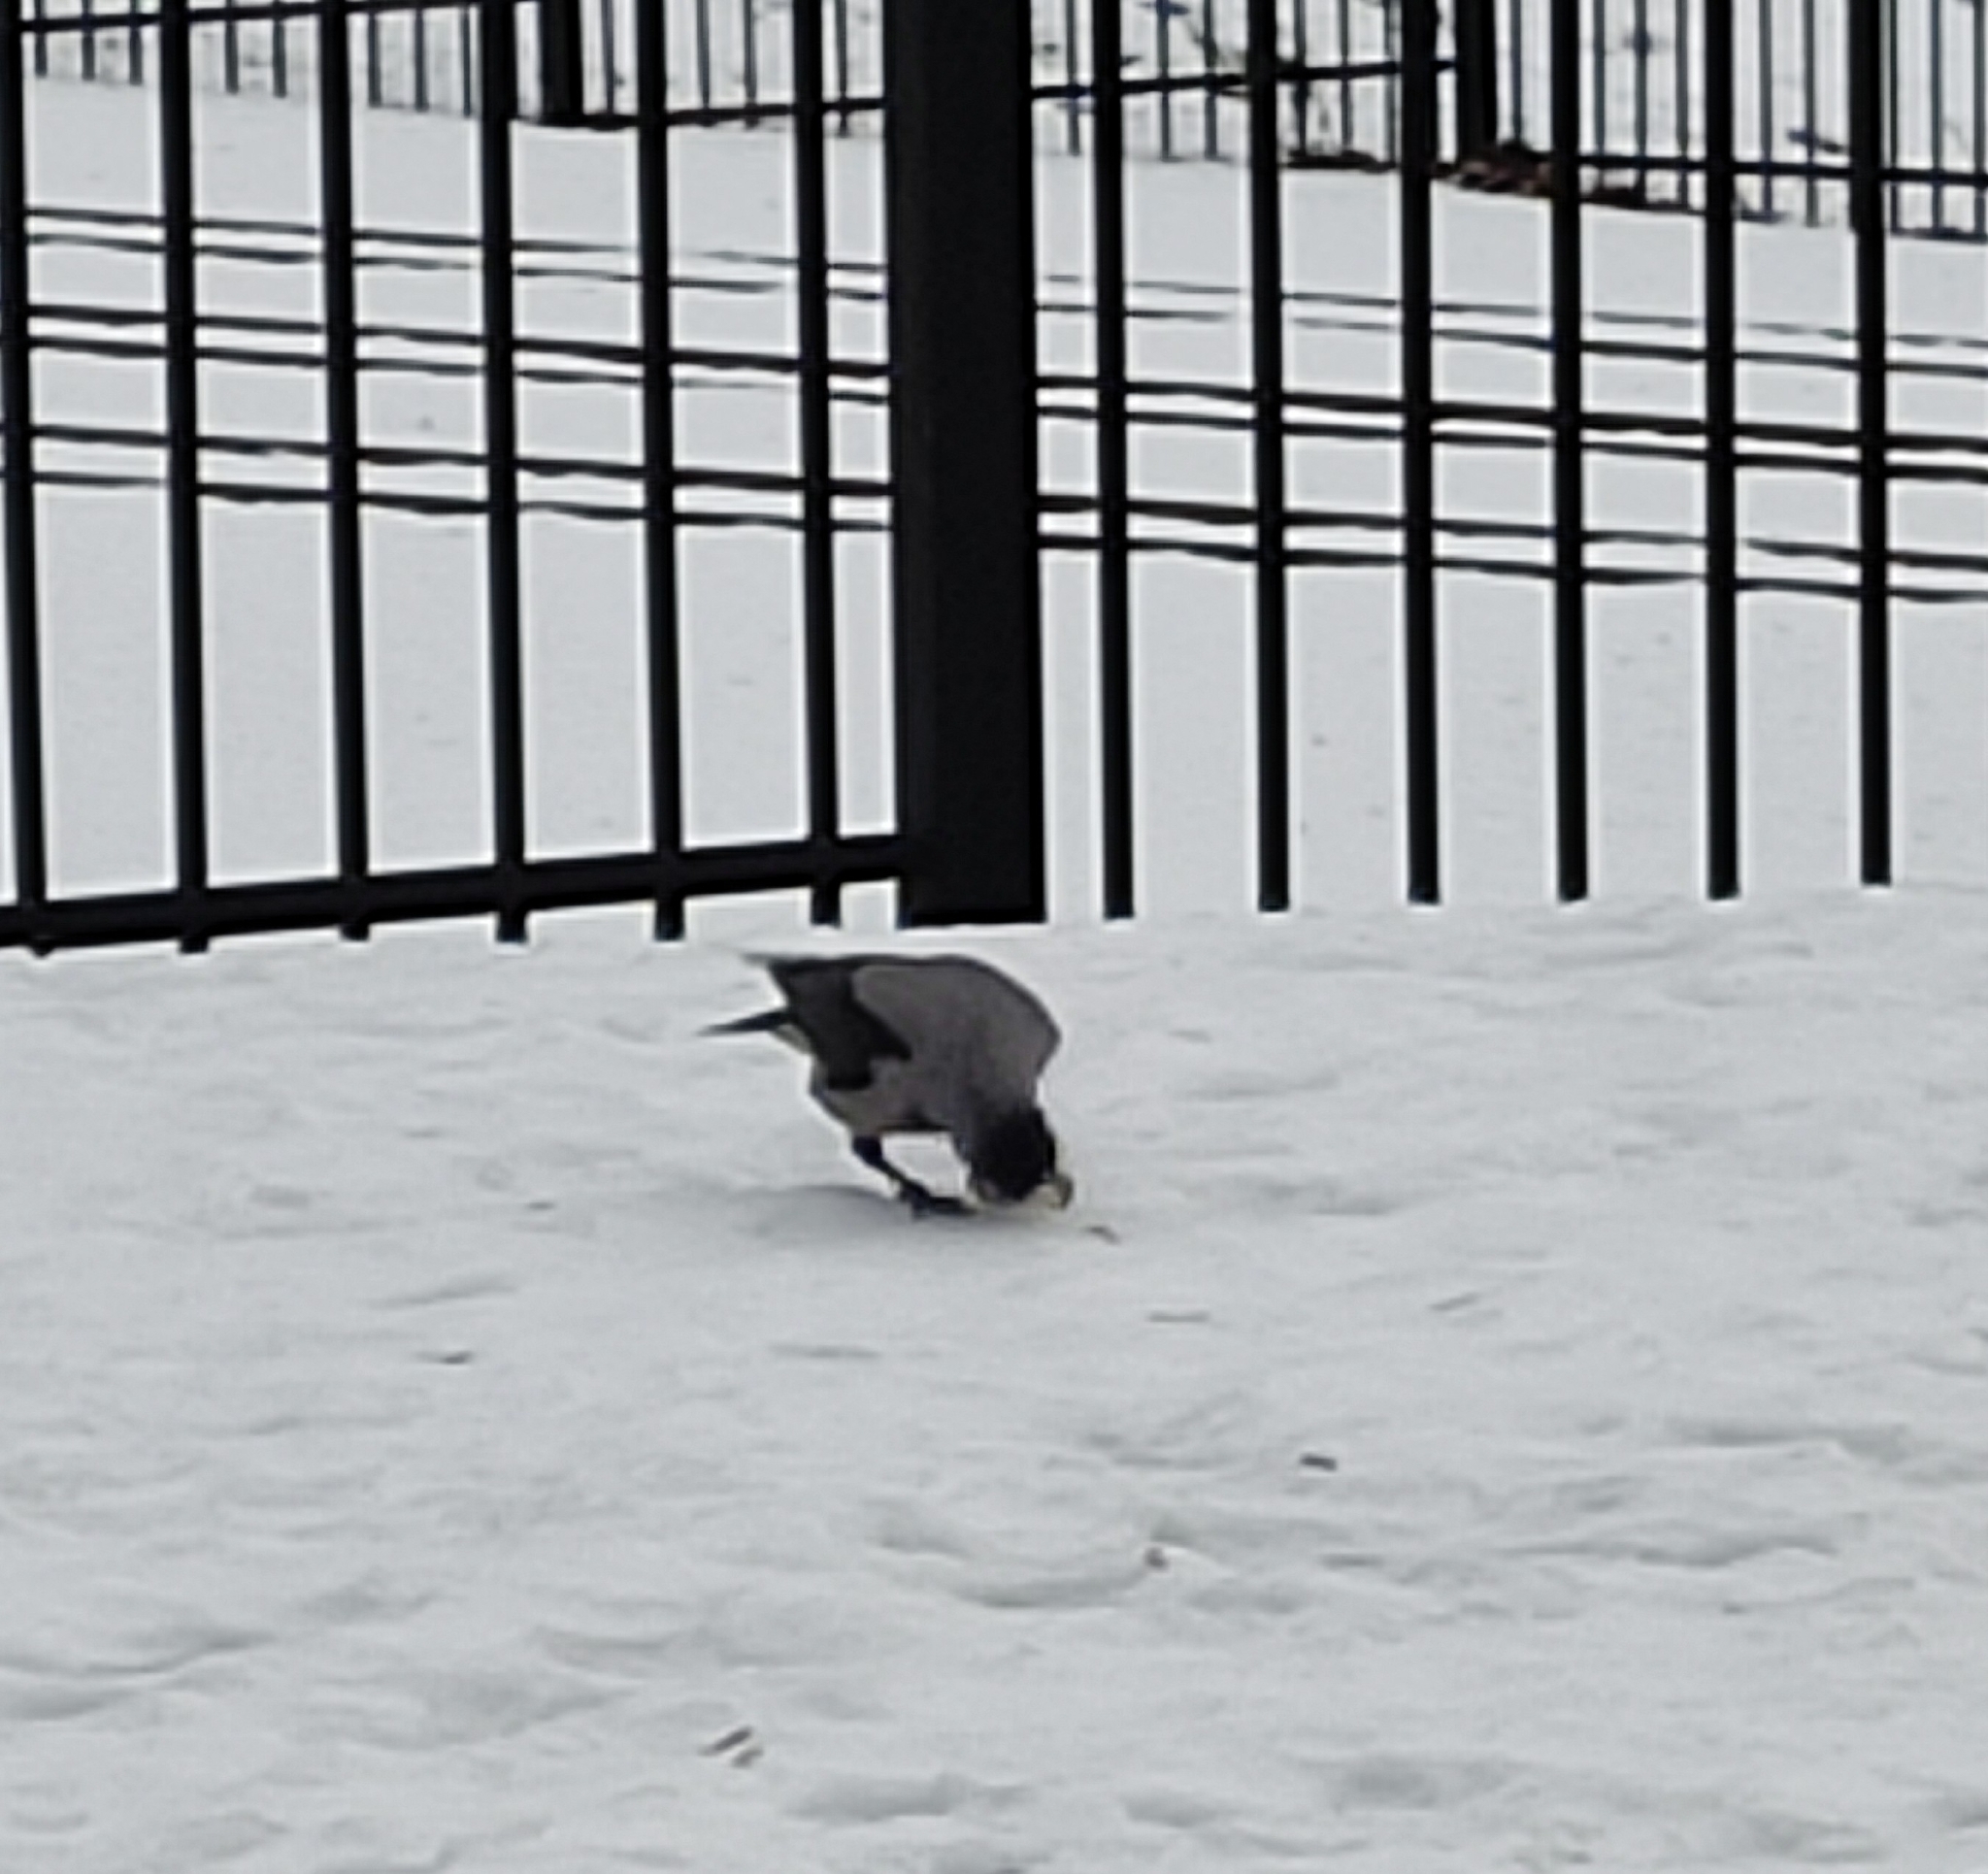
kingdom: Animalia
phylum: Chordata
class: Aves
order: Passeriformes
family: Corvidae
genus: Corvus
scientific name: Corvus cornix
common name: Hooded crow
